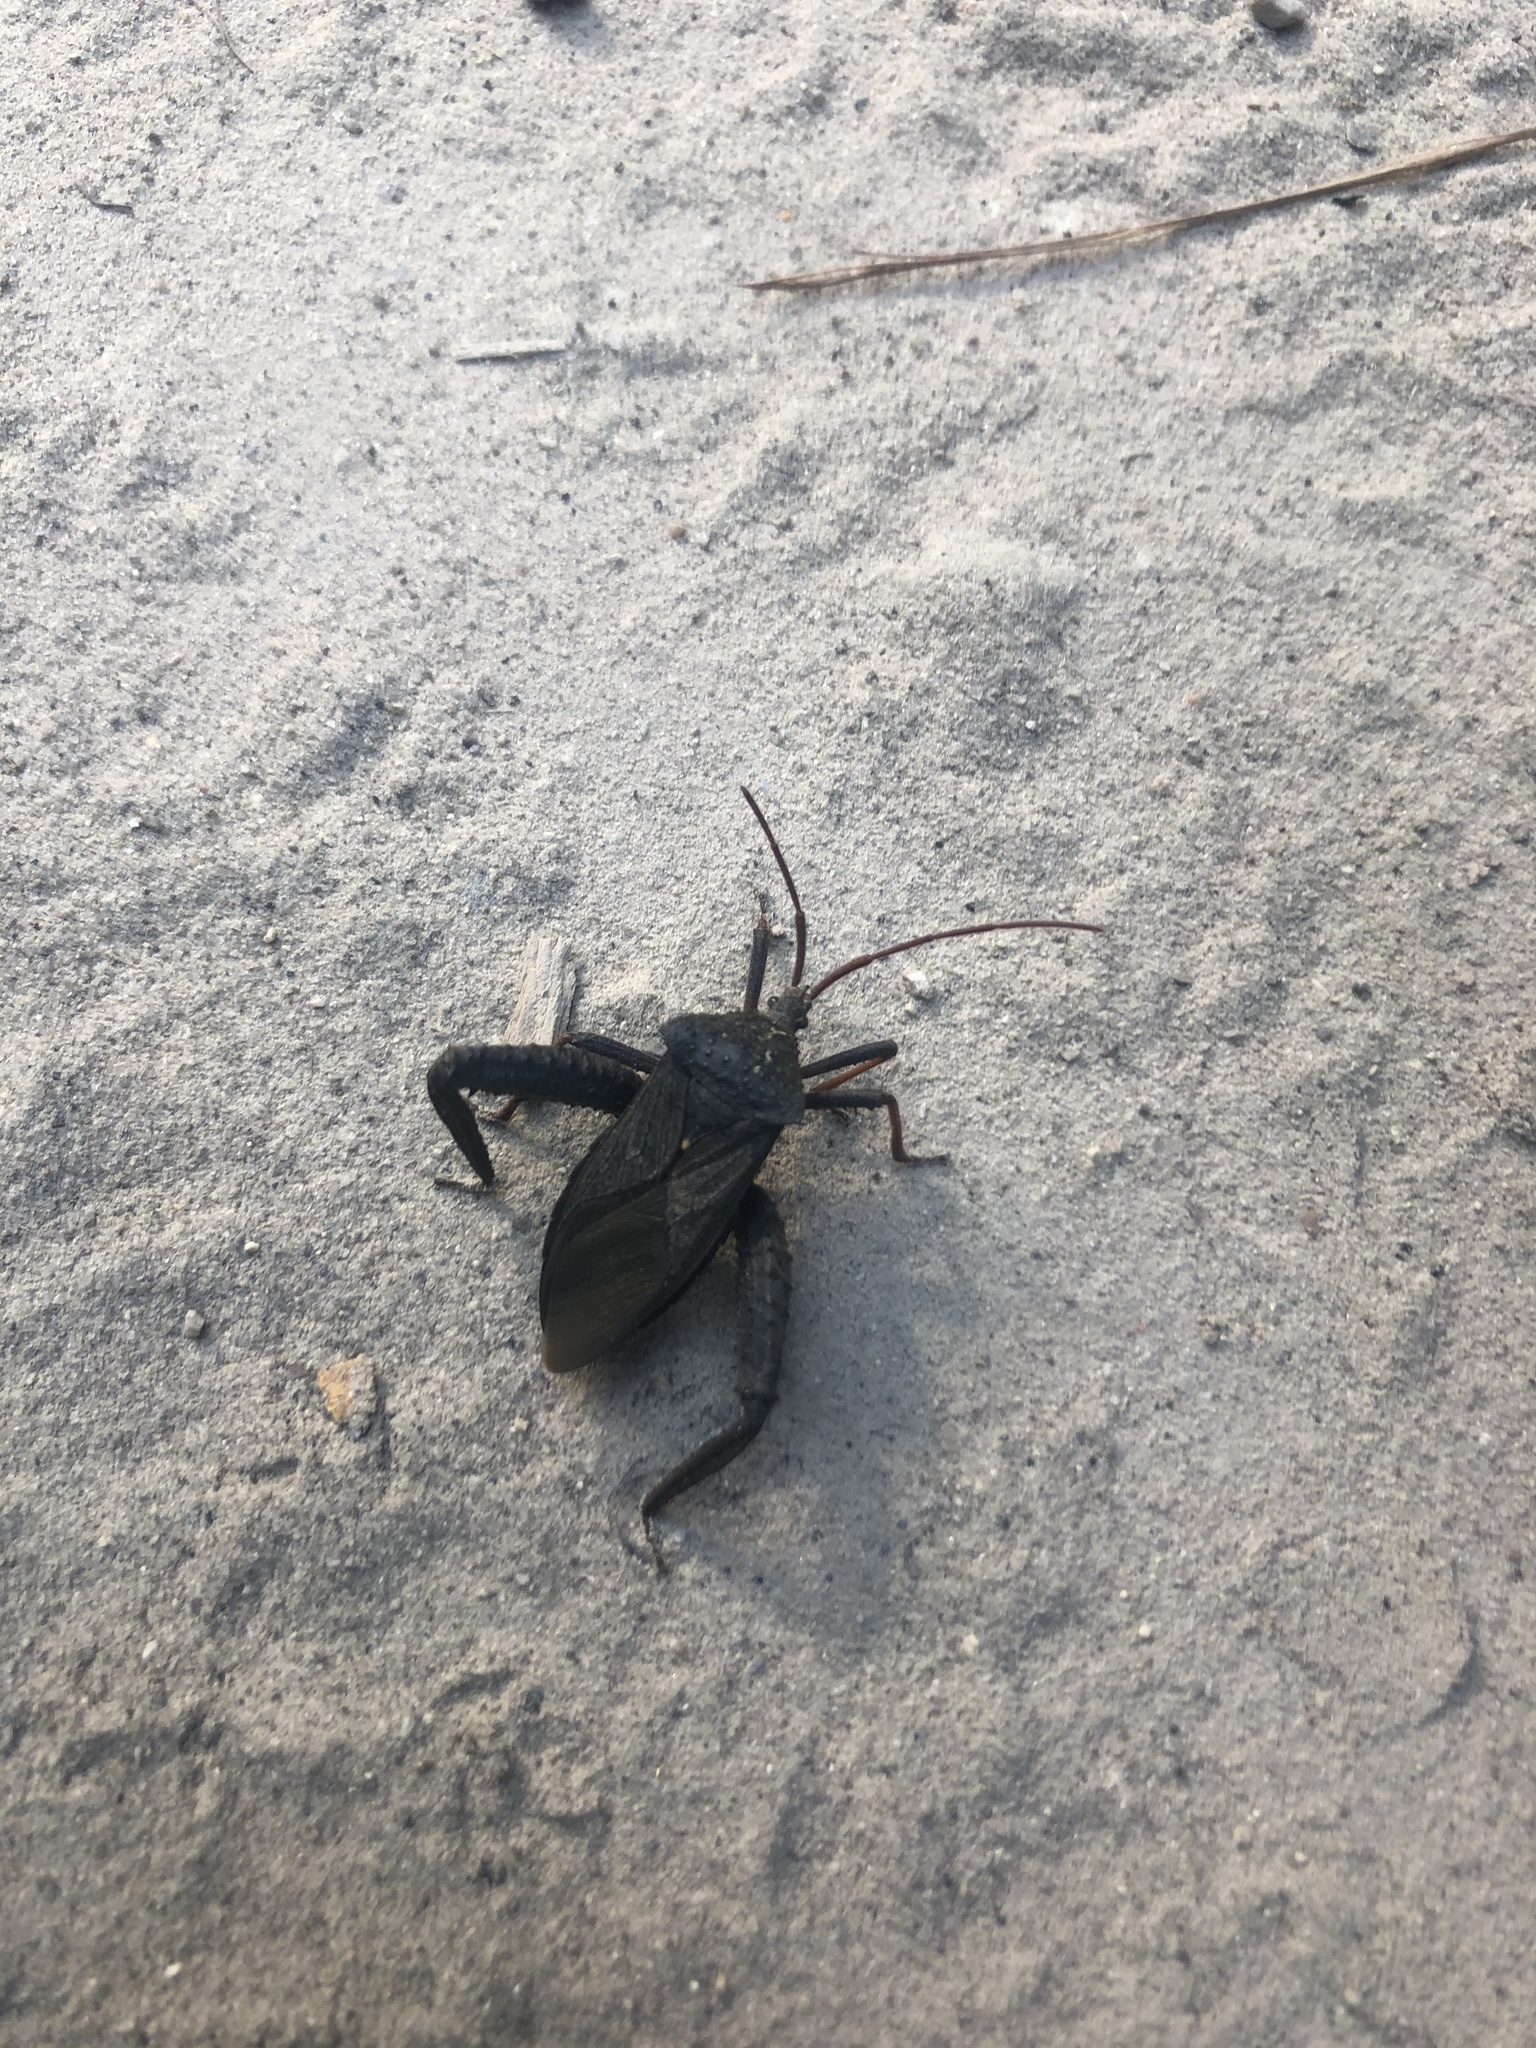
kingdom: Animalia
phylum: Arthropoda
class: Insecta
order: Hemiptera
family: Coreidae
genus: Acanthocephala
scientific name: Acanthocephala femorata
